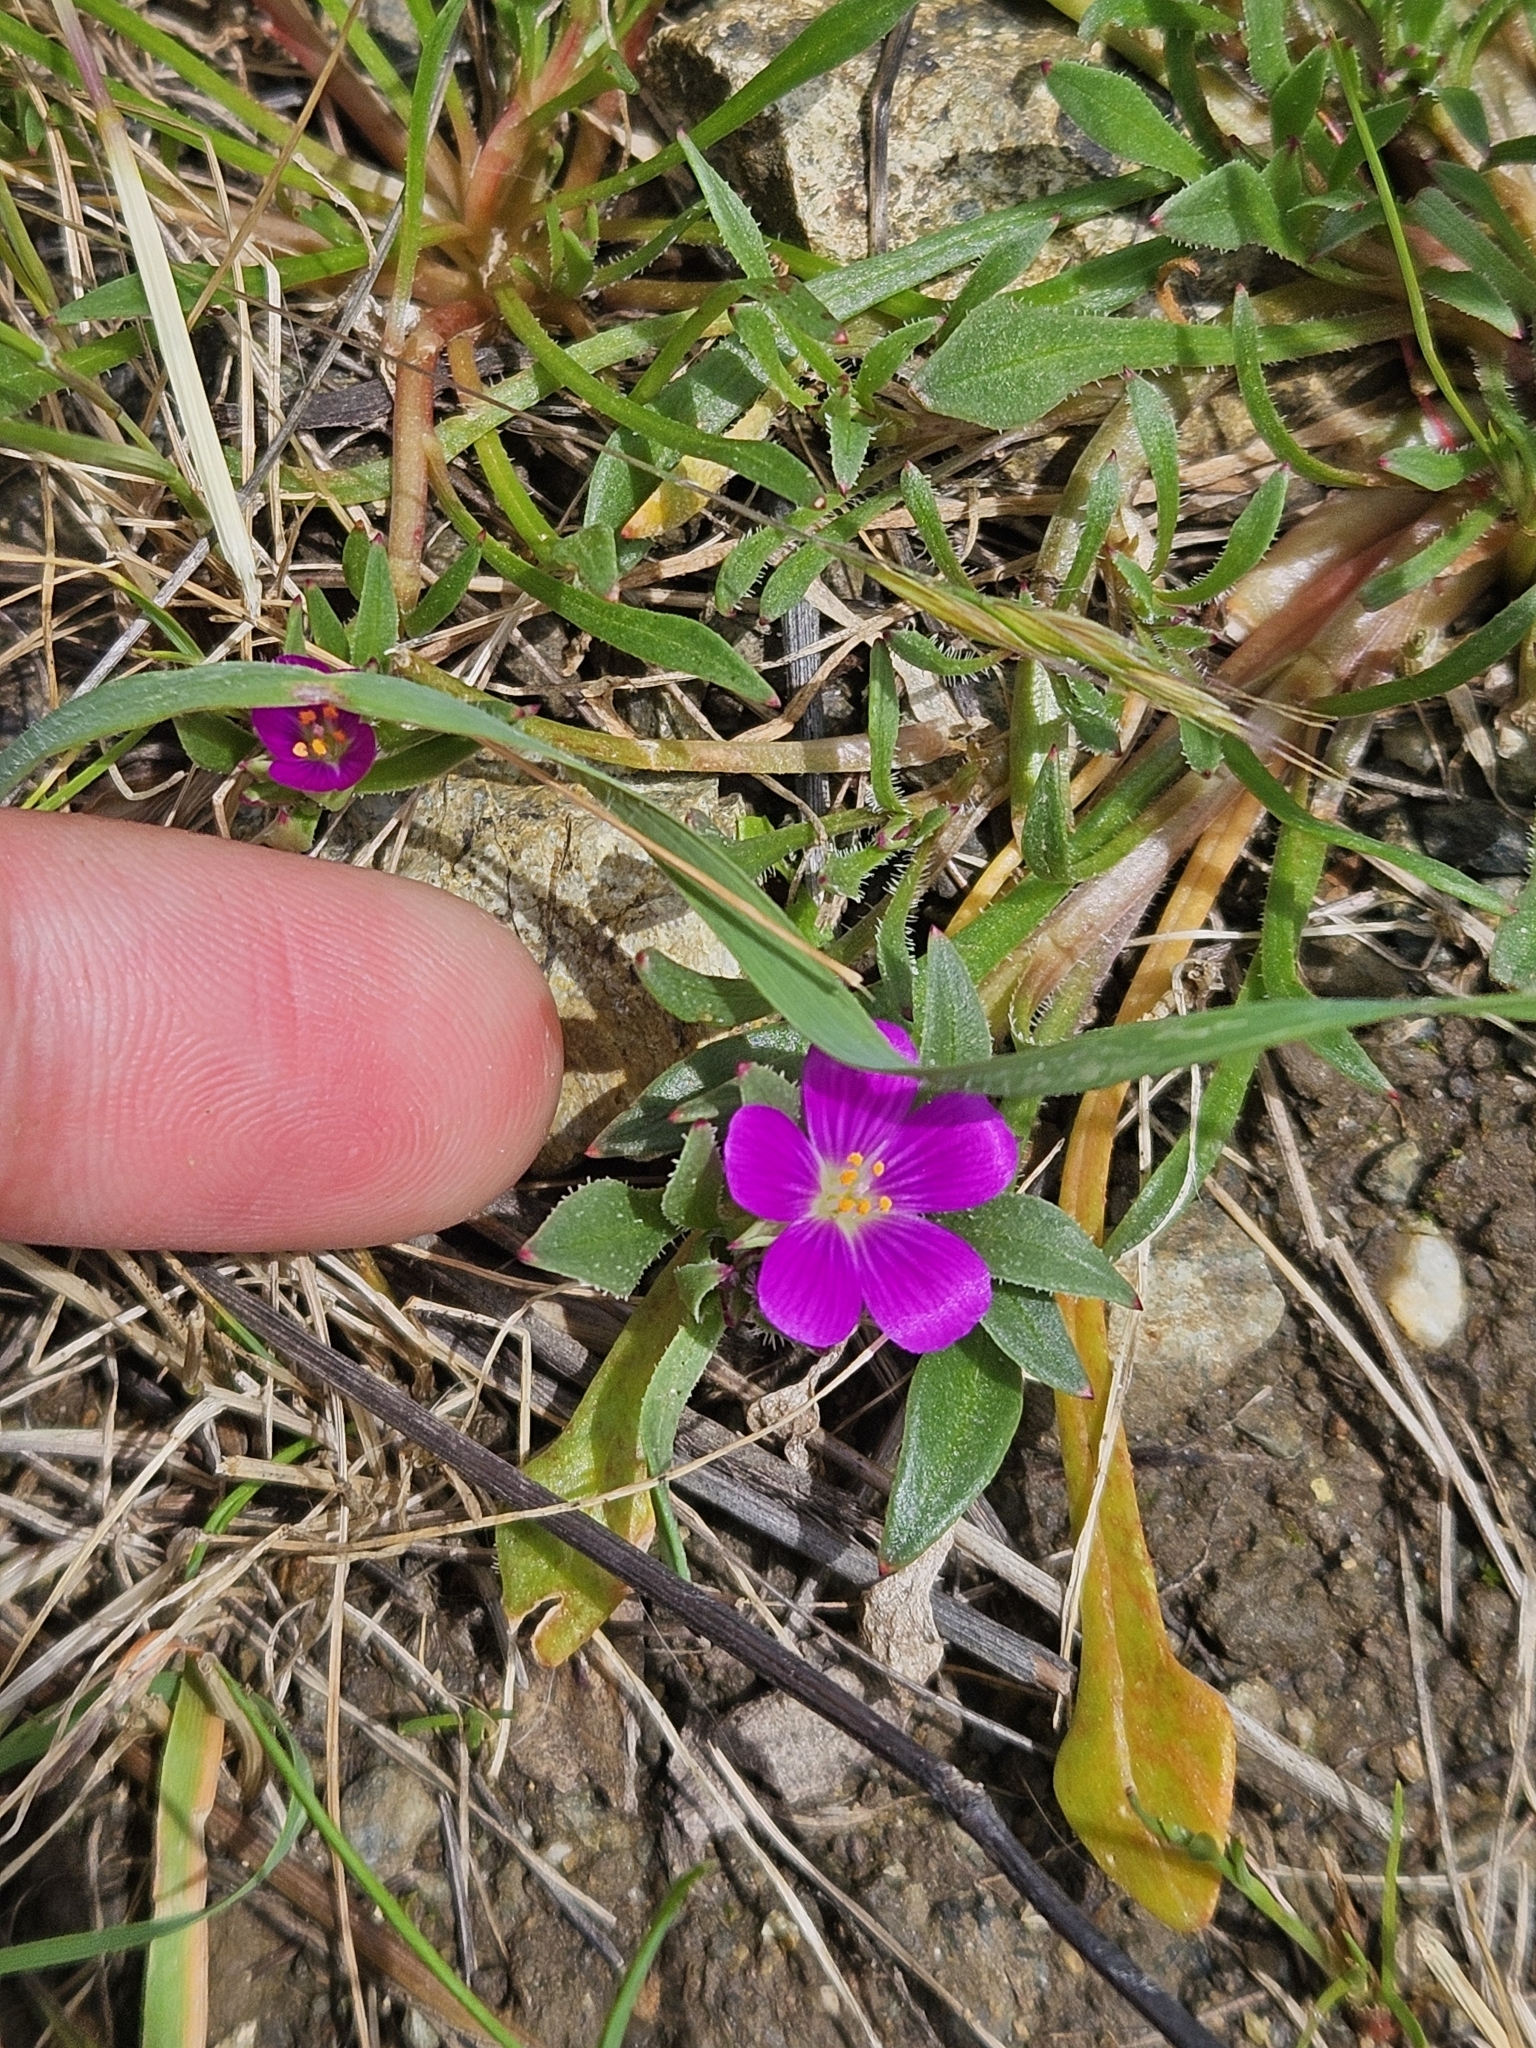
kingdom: Plantae
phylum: Tracheophyta
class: Magnoliopsida
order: Caryophyllales
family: Montiaceae
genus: Calandrinia
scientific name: Calandrinia menziesii
